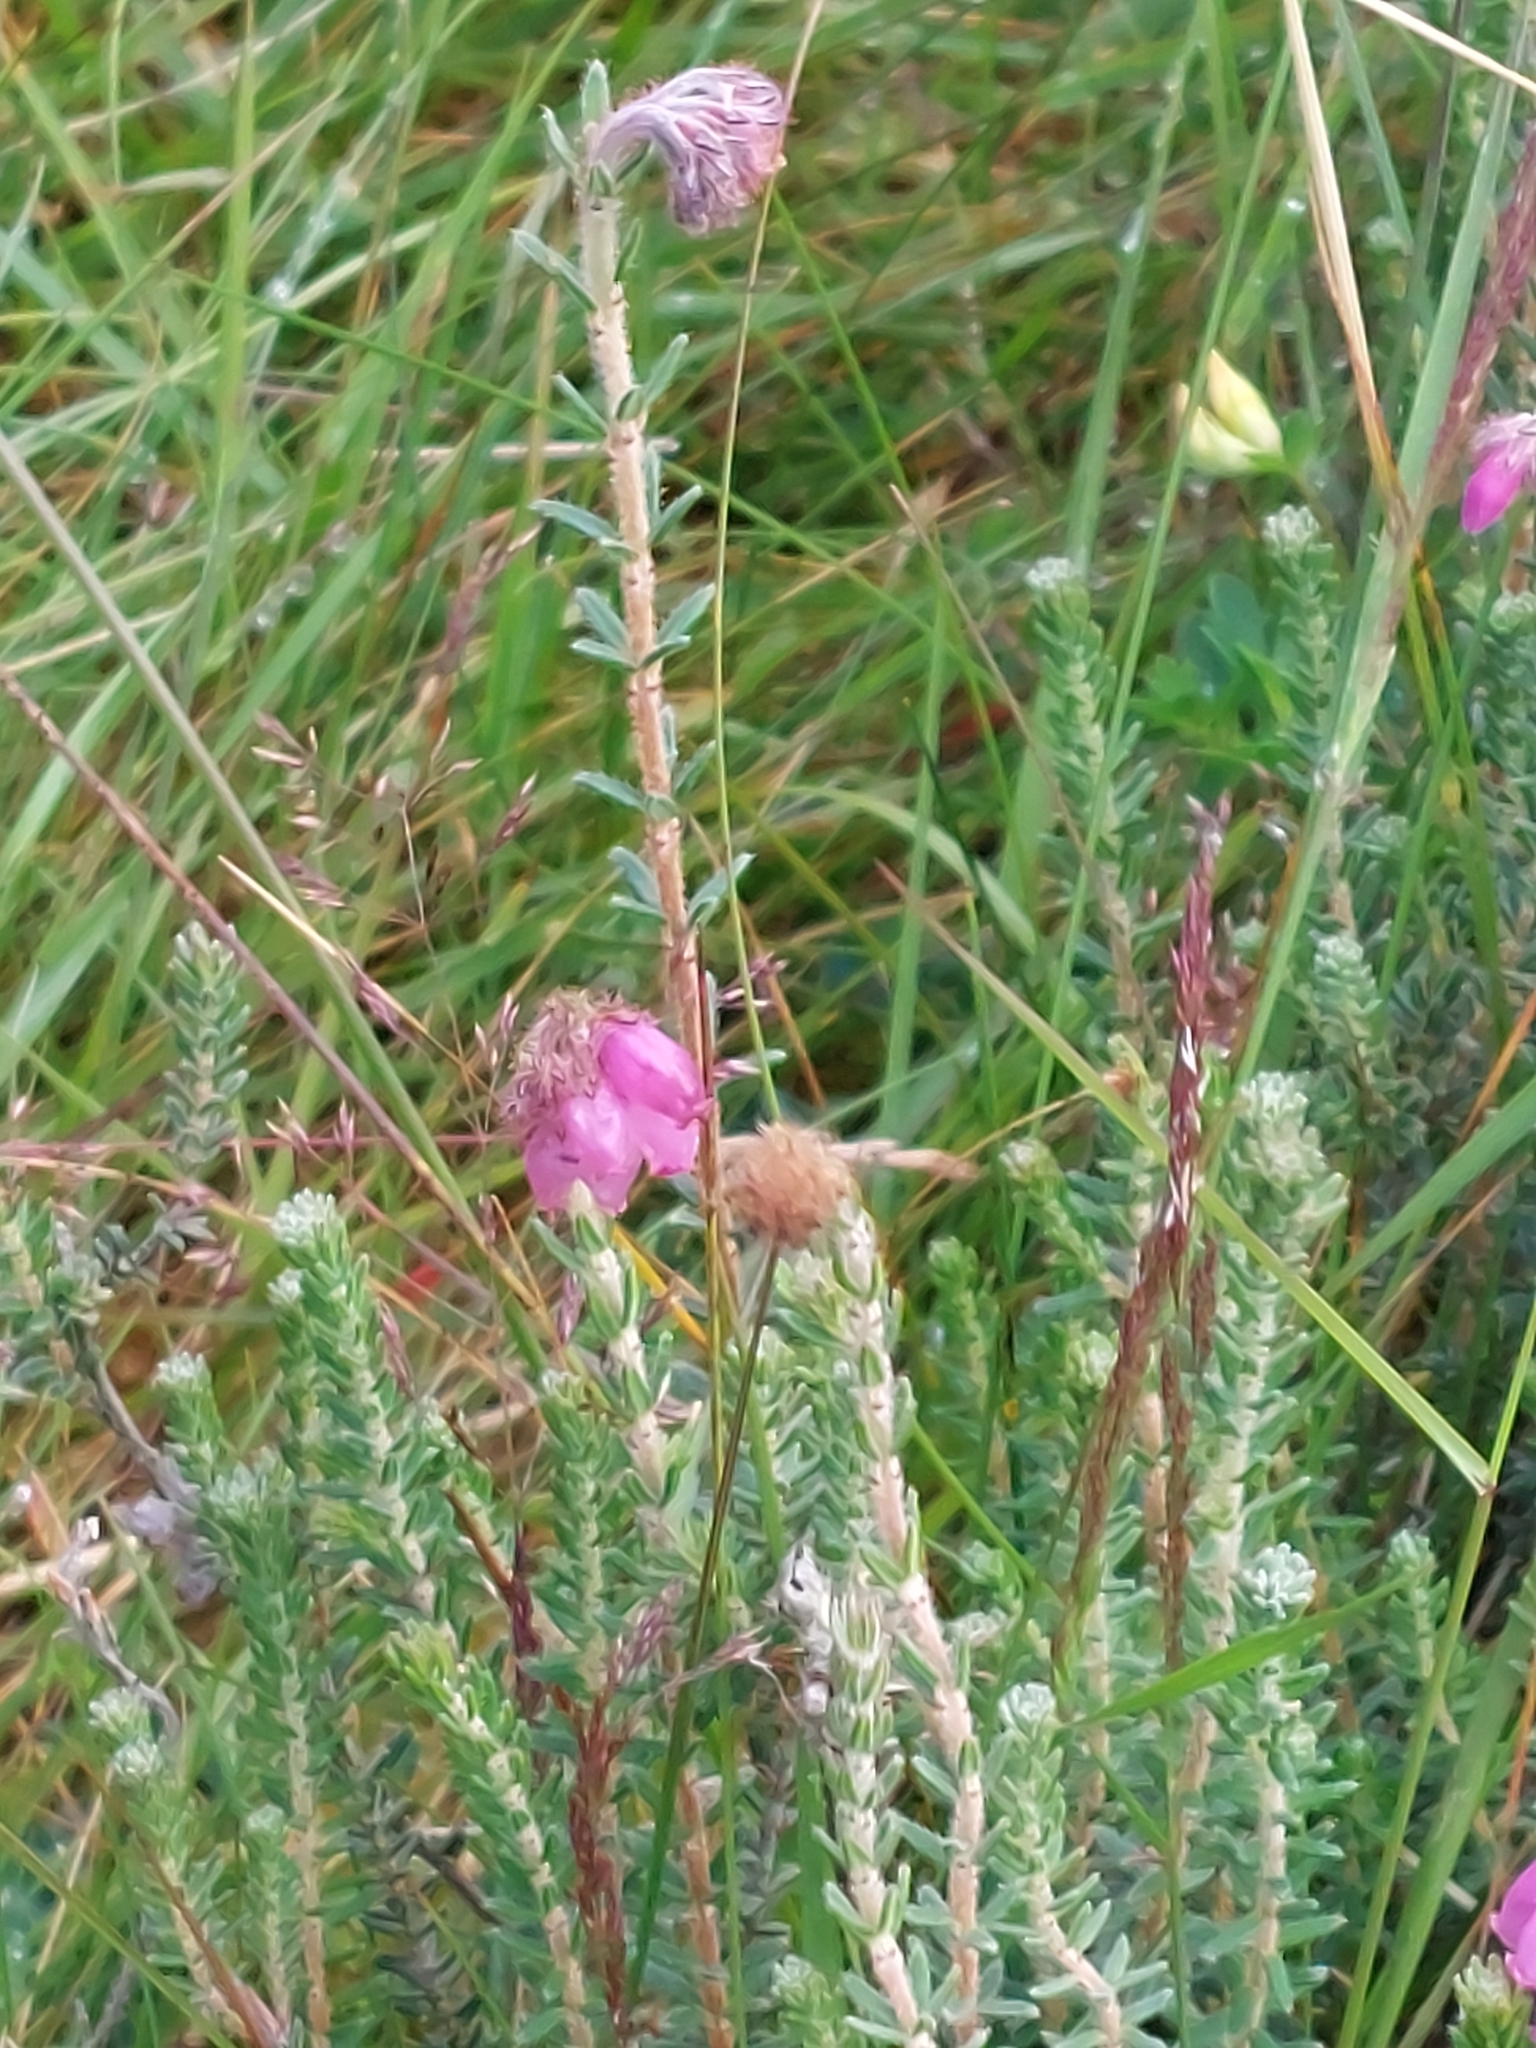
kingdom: Plantae
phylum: Tracheophyta
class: Magnoliopsida
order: Ericales
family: Ericaceae
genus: Erica
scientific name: Erica tetralix
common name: Cross-leaved heath
